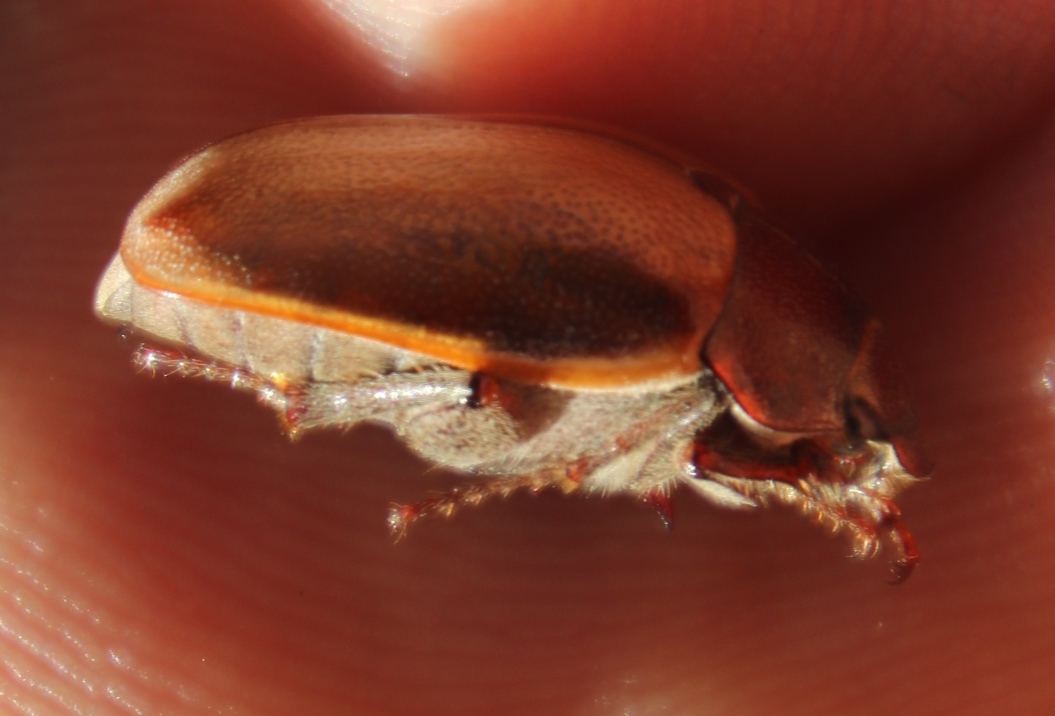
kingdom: Animalia
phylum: Arthropoda
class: Insecta
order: Coleoptera
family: Scarabaeidae
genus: Pegylis
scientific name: Pegylis sommeri
